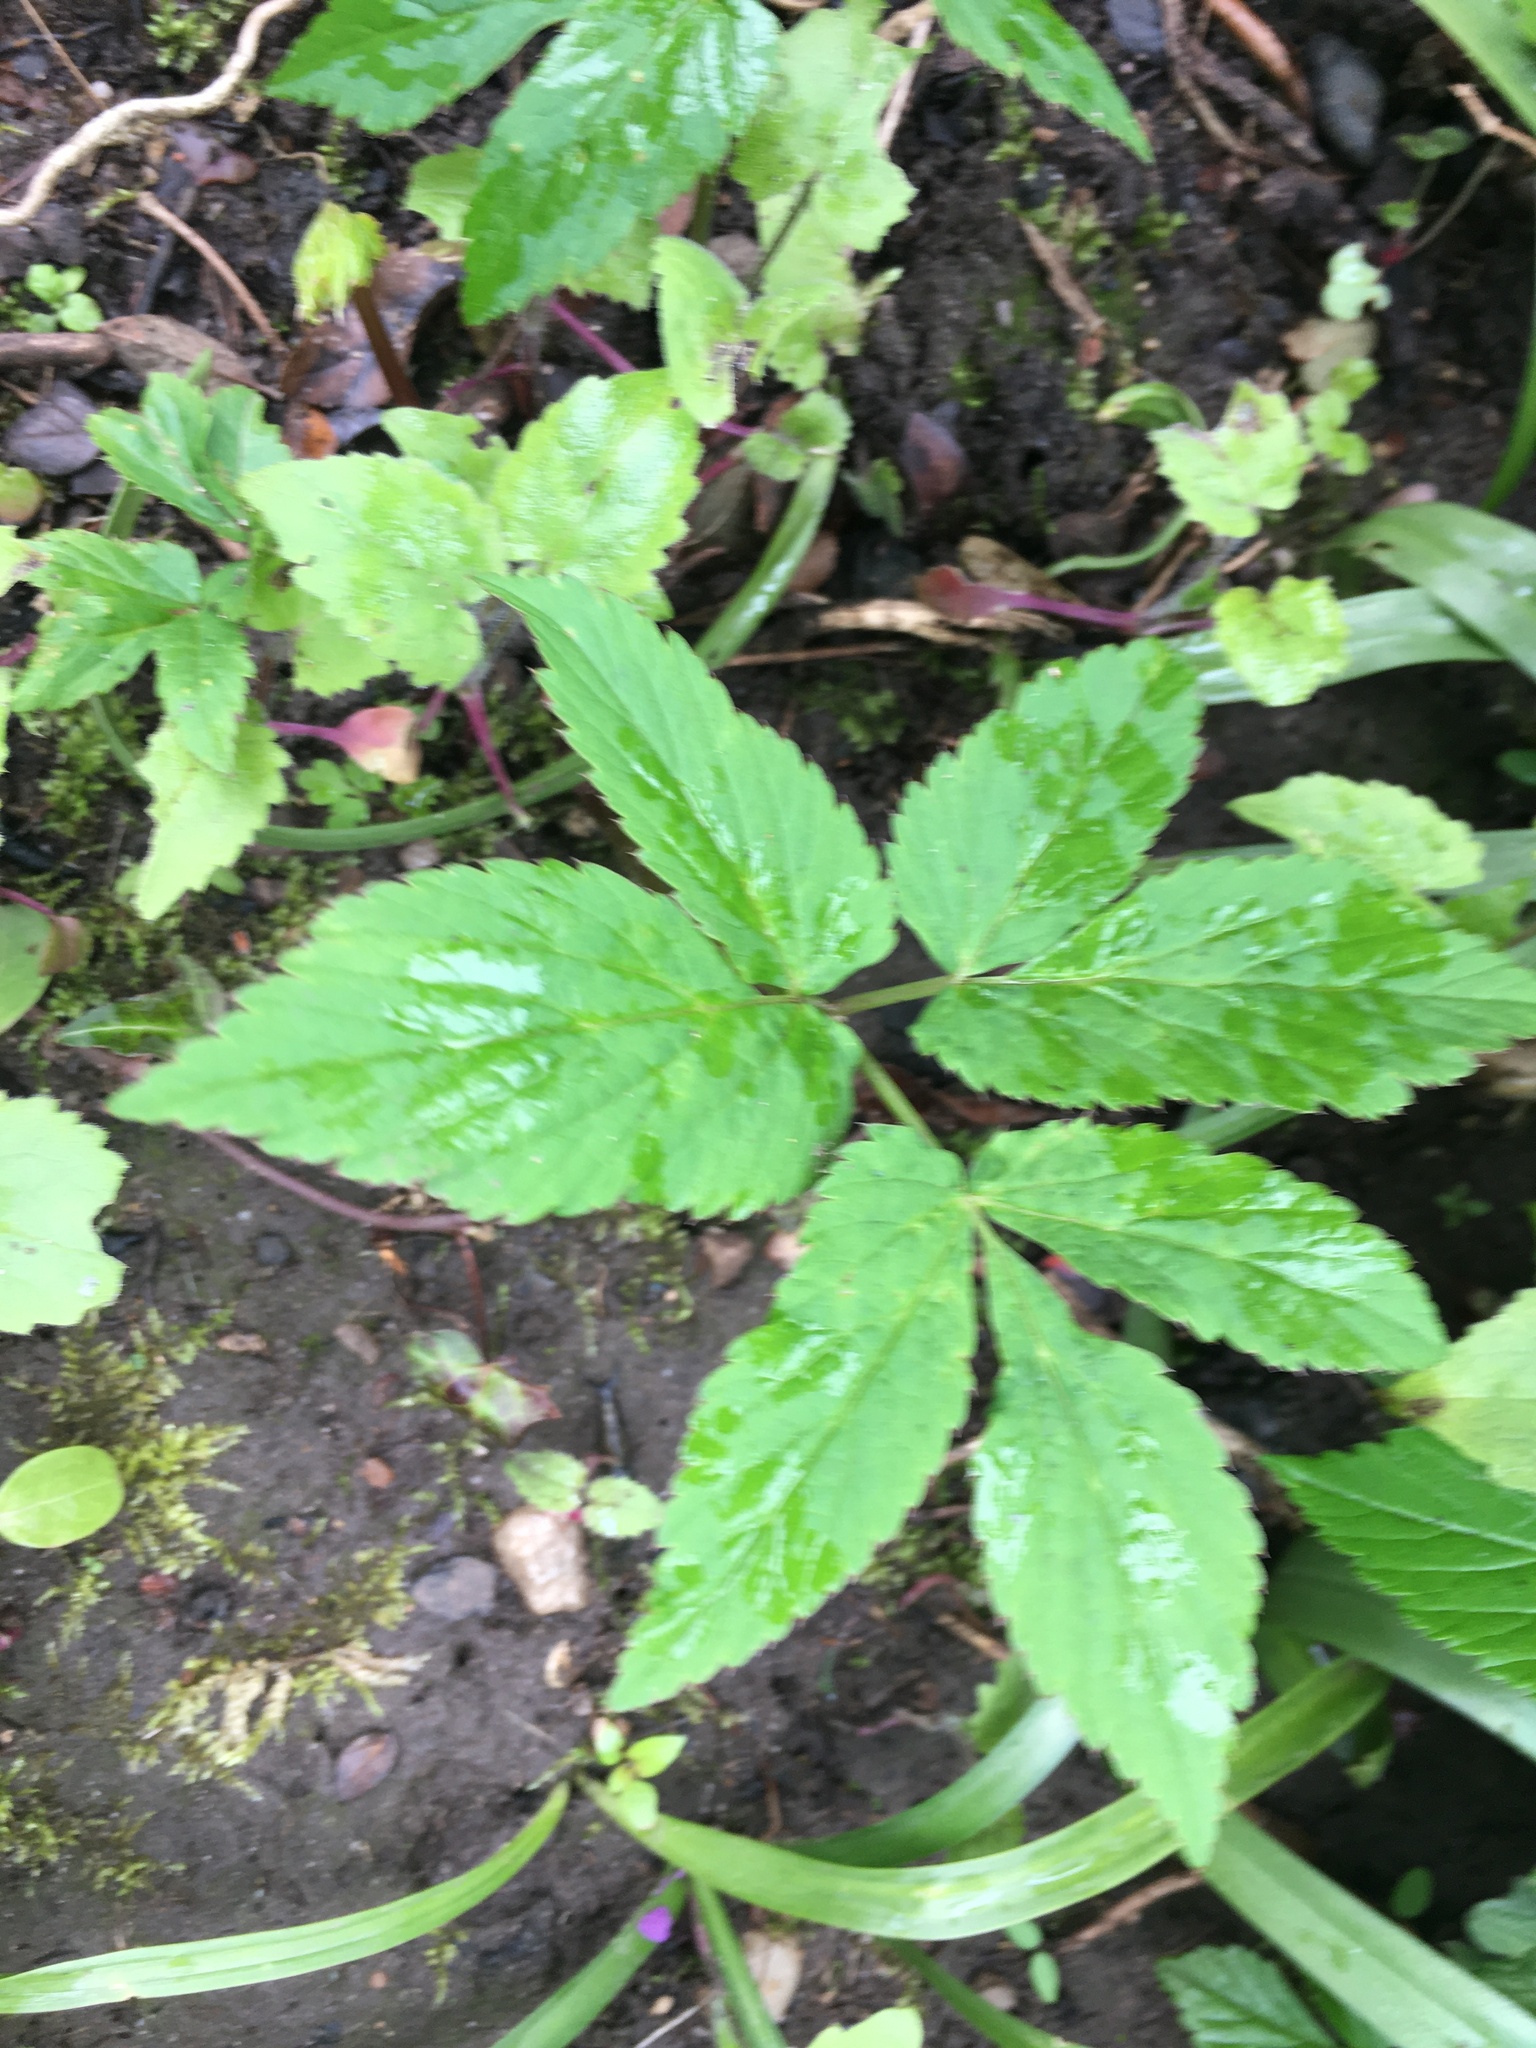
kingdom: Plantae
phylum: Tracheophyta
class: Magnoliopsida
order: Apiales
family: Apiaceae
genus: Aegopodium
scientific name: Aegopodium podagraria
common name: Ground-elder
